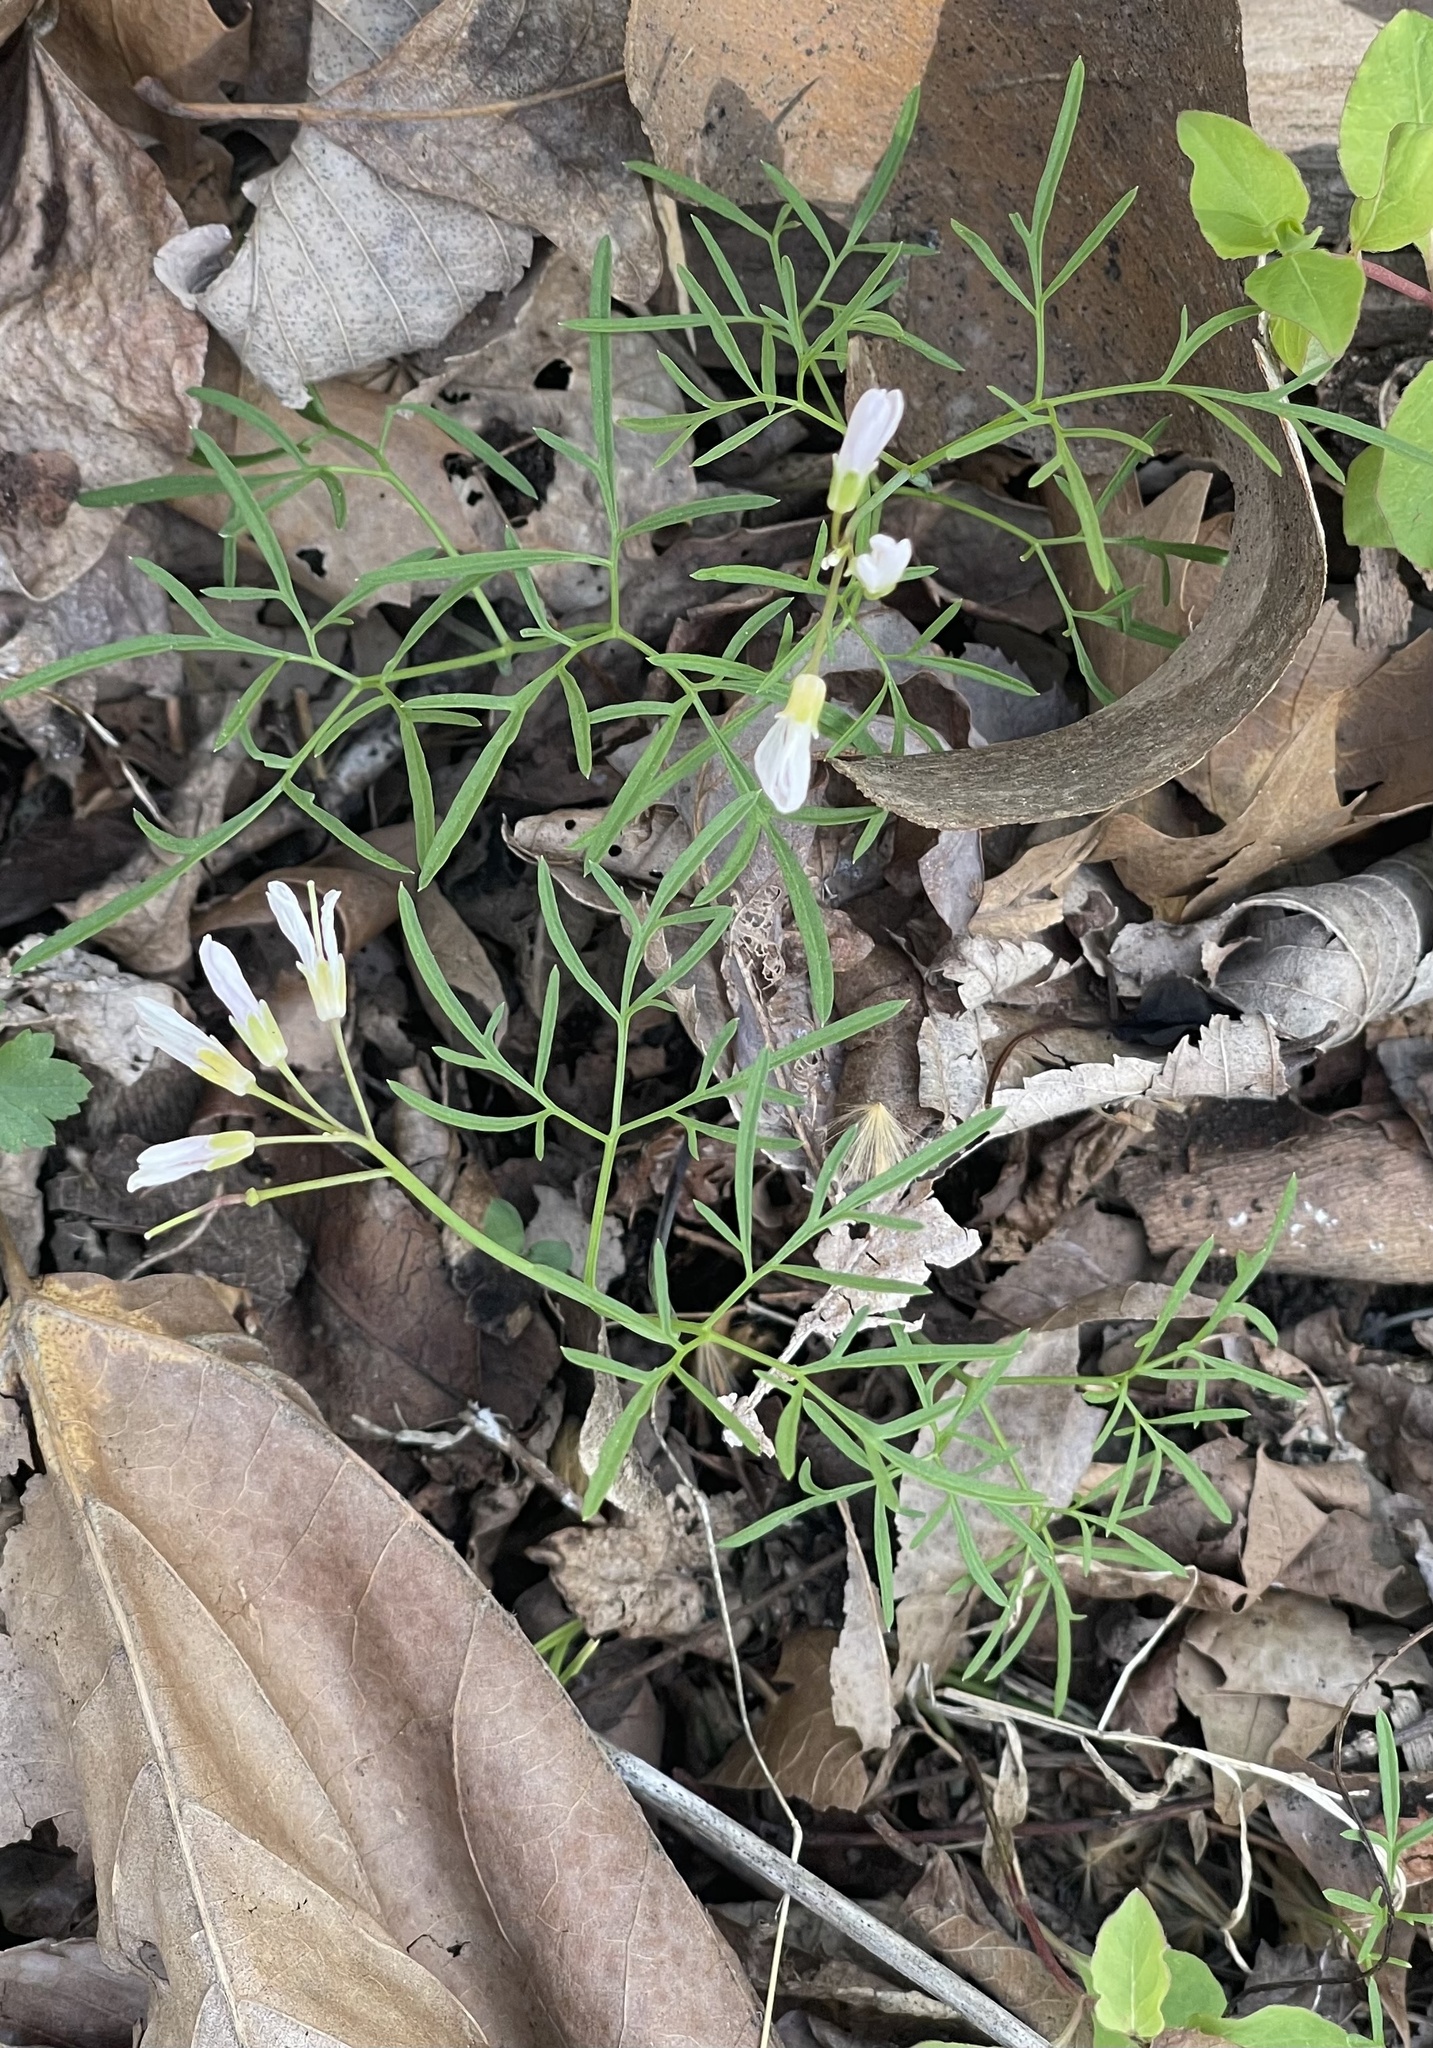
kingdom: Plantae
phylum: Tracheophyta
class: Magnoliopsida
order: Brassicales
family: Brassicaceae
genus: Cardamine
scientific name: Cardamine dissecta
